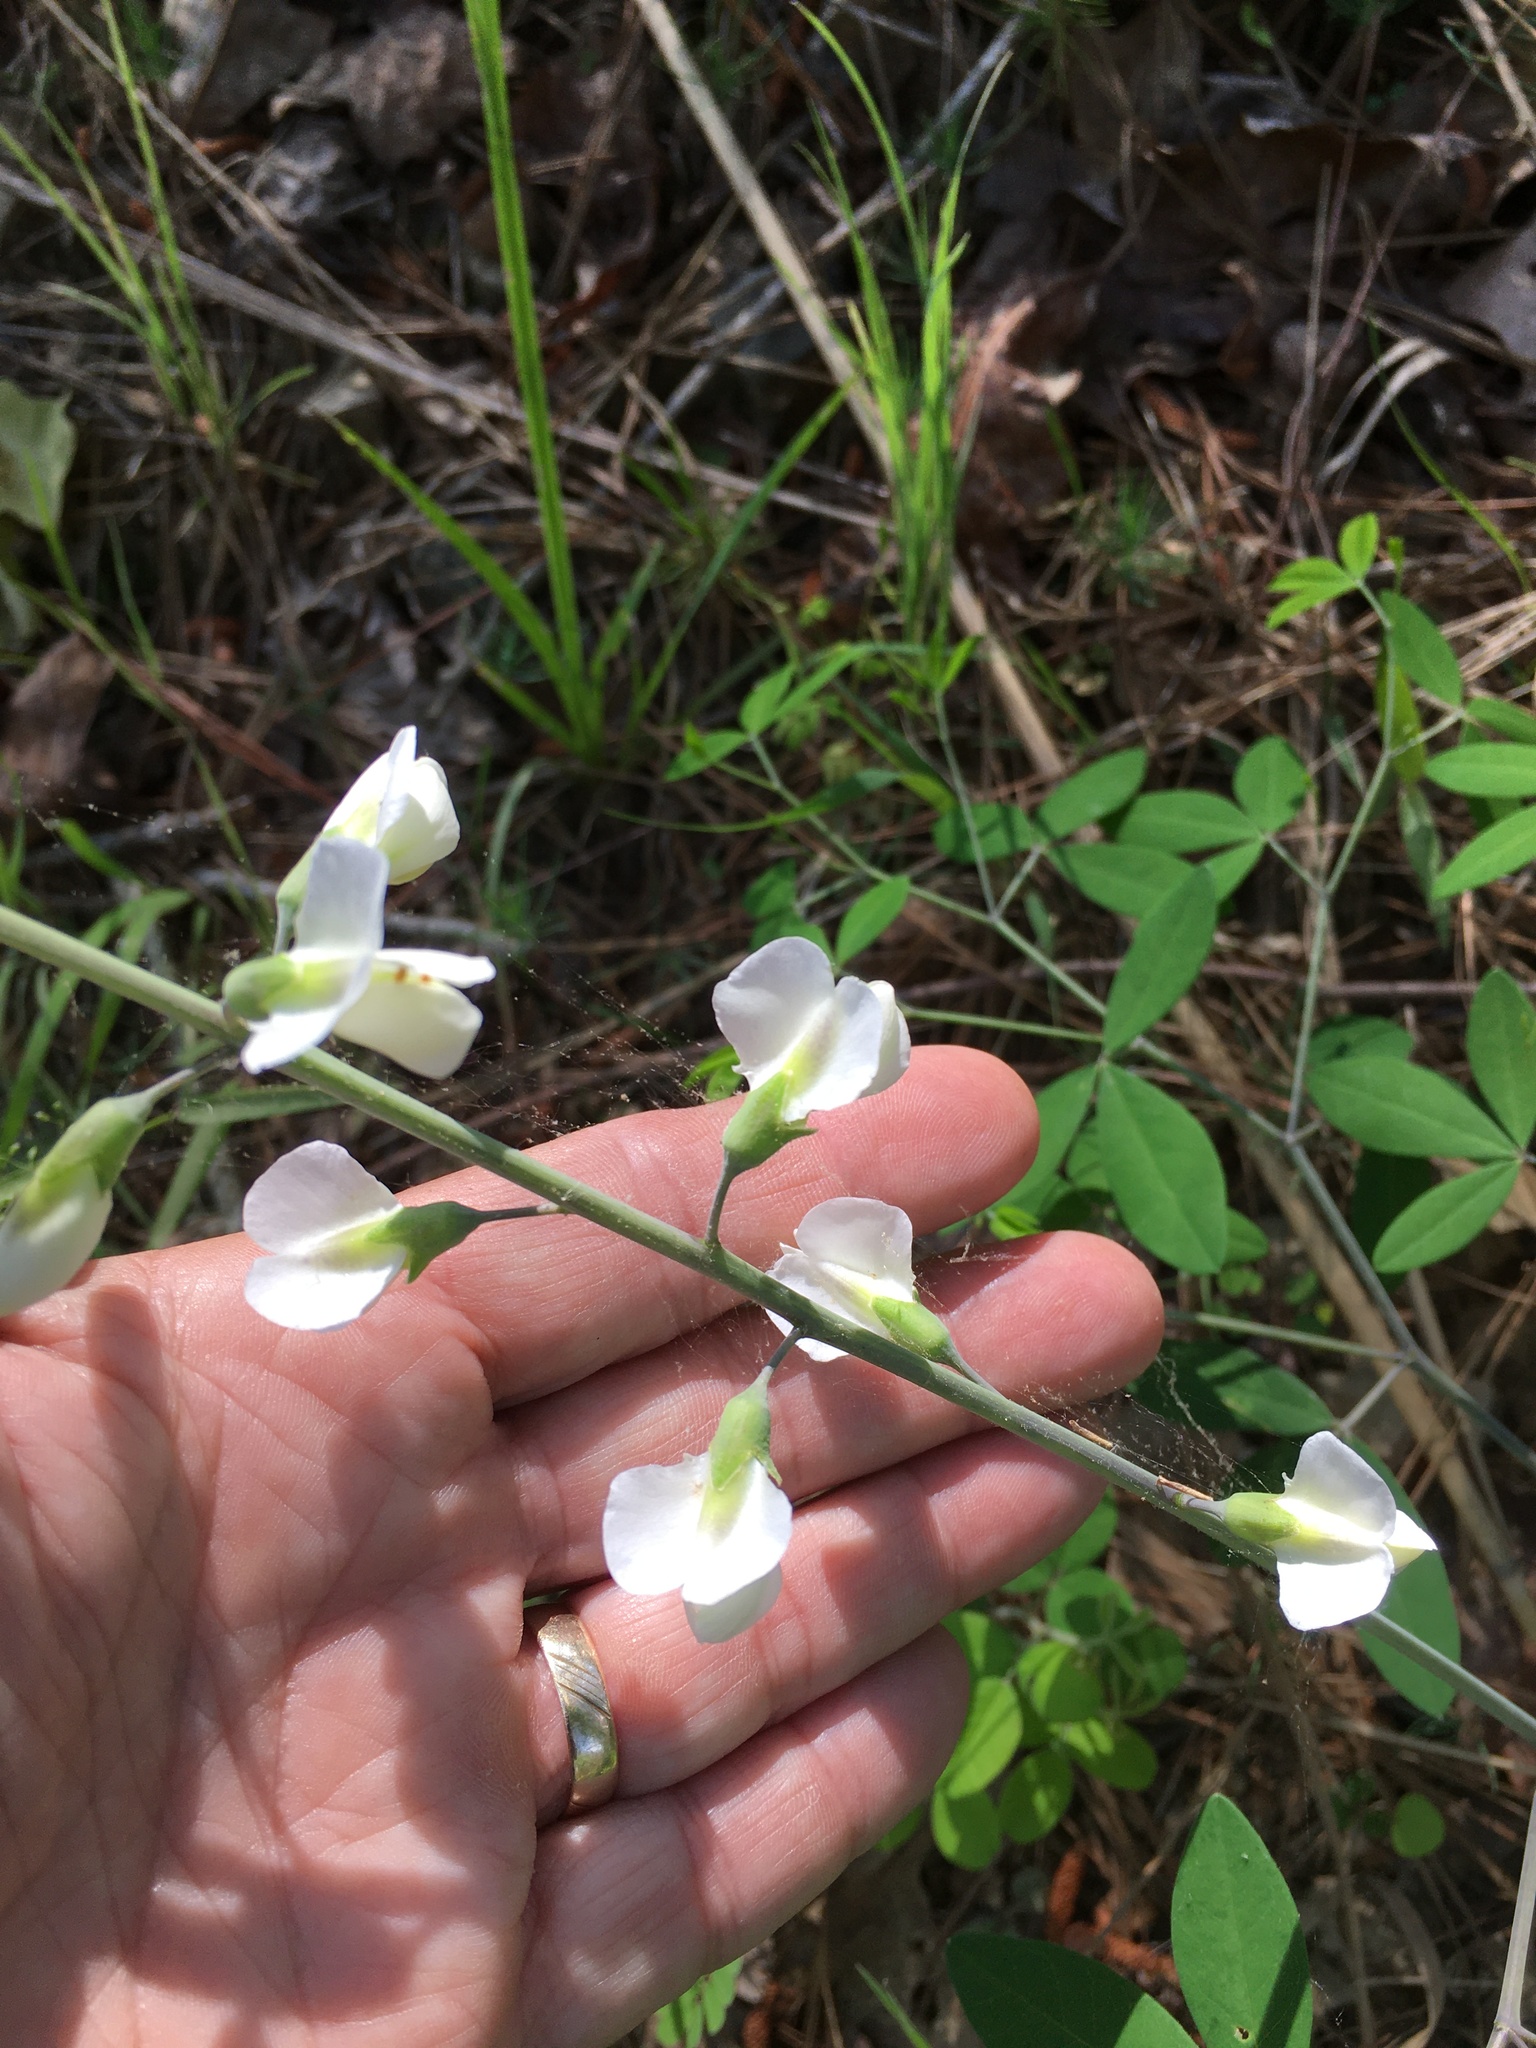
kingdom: Plantae
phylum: Tracheophyta
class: Magnoliopsida
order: Fabales
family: Fabaceae
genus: Baptisia
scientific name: Baptisia albescens
